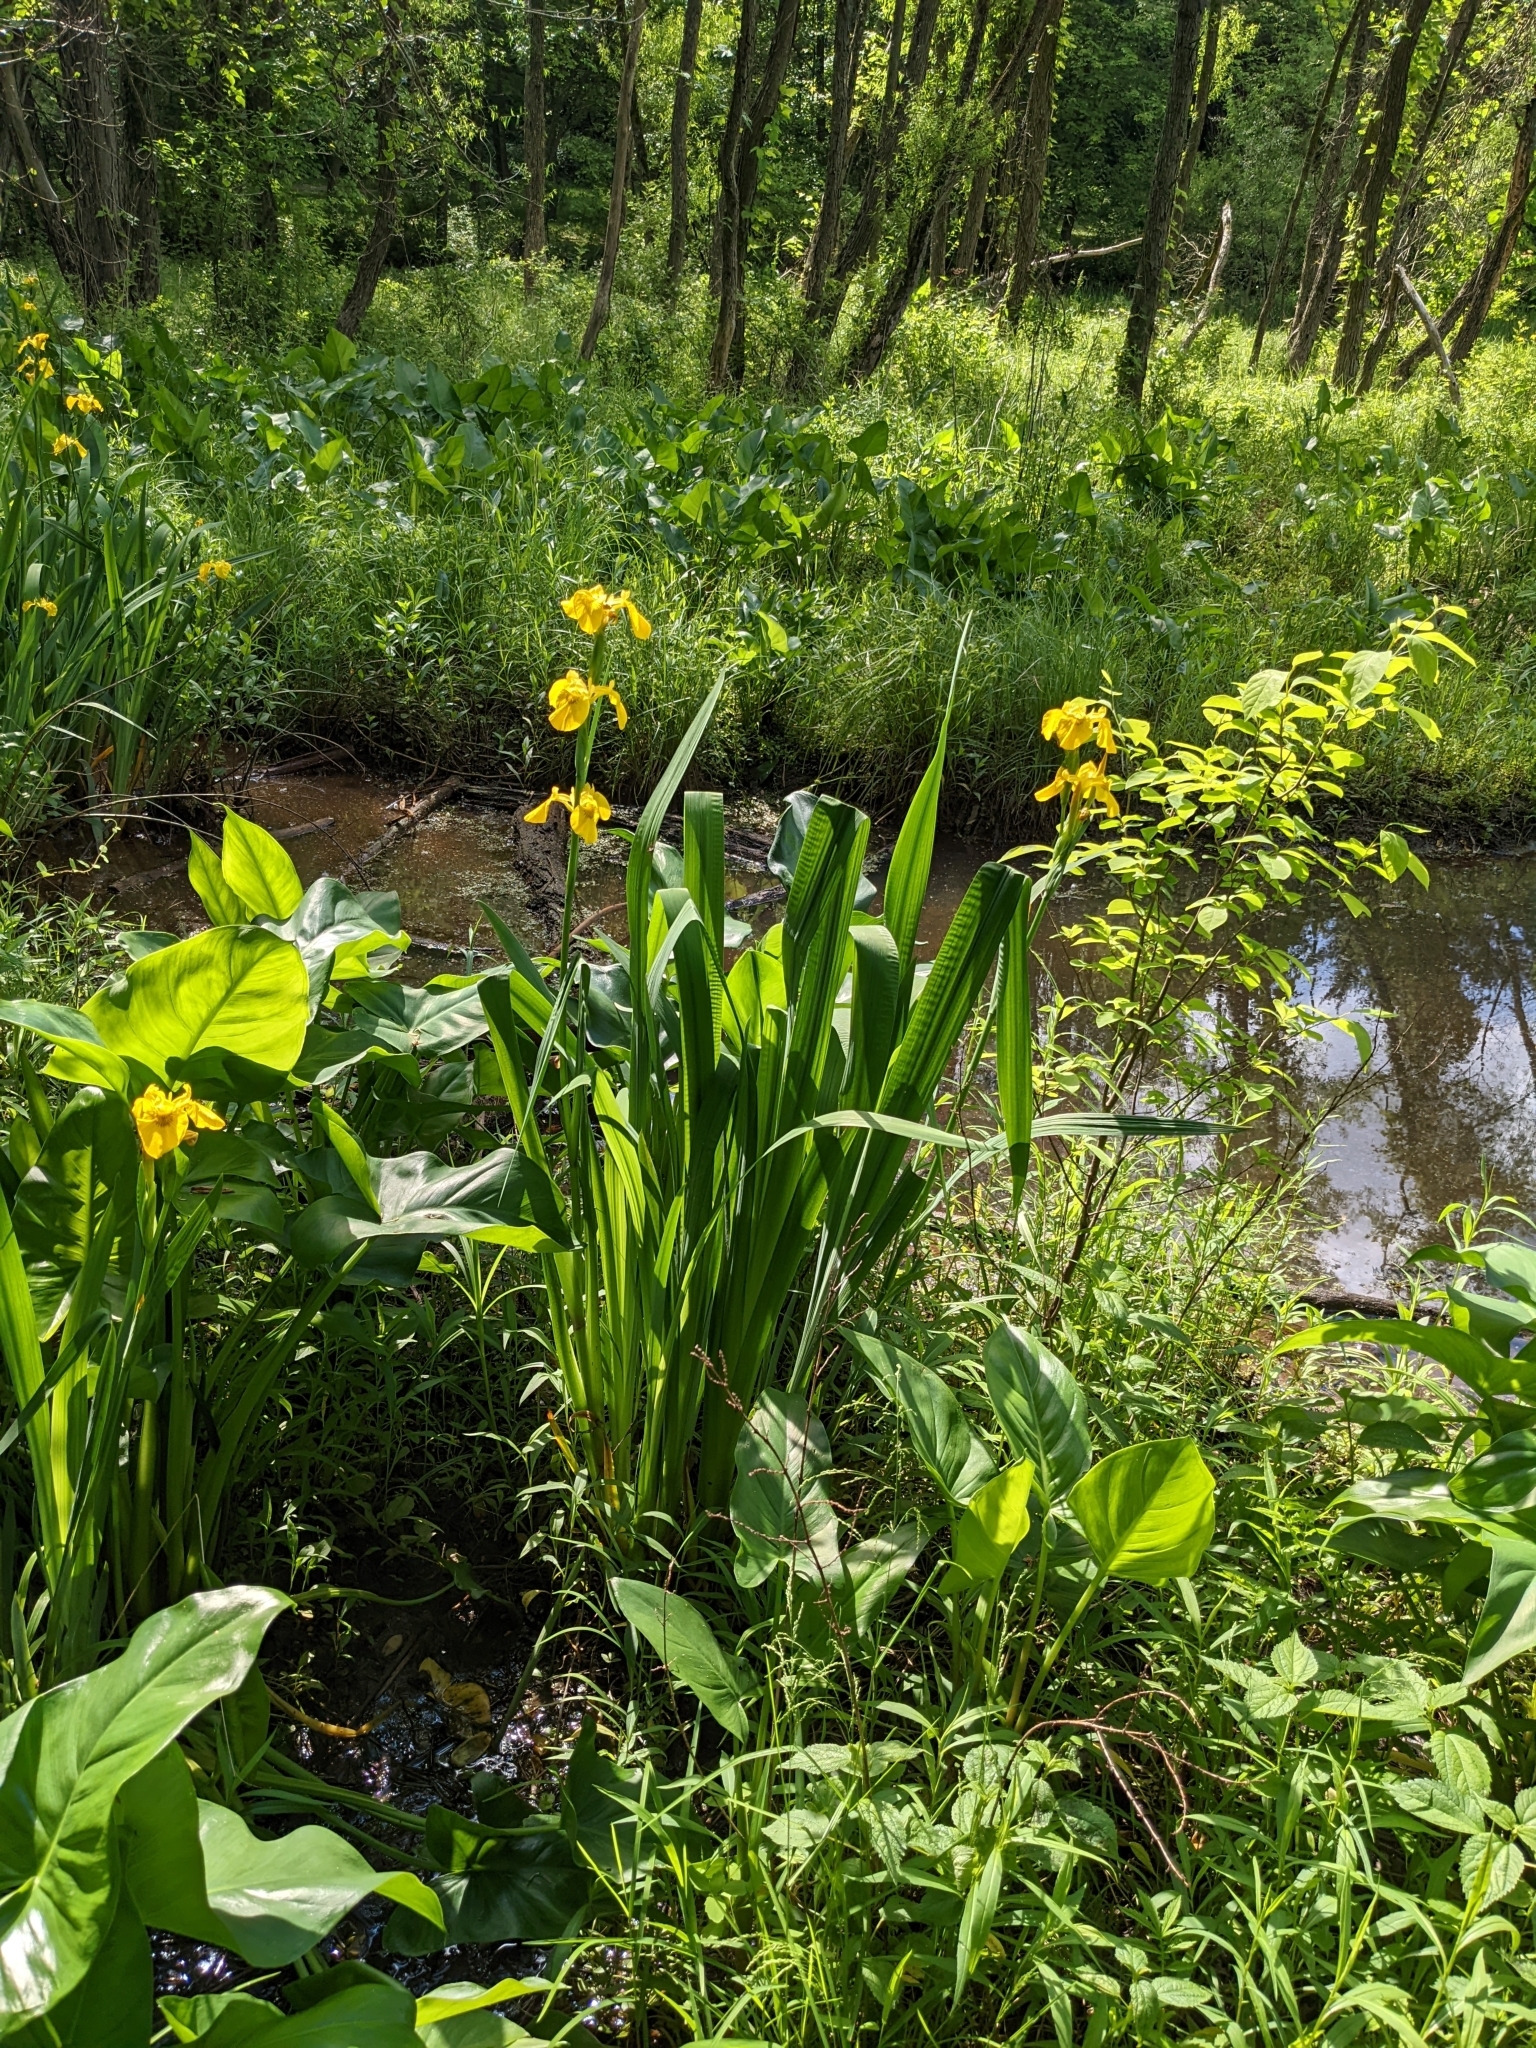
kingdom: Plantae
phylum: Tracheophyta
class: Liliopsida
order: Asparagales
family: Iridaceae
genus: Iris
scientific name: Iris pseudacorus
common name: Yellow flag
